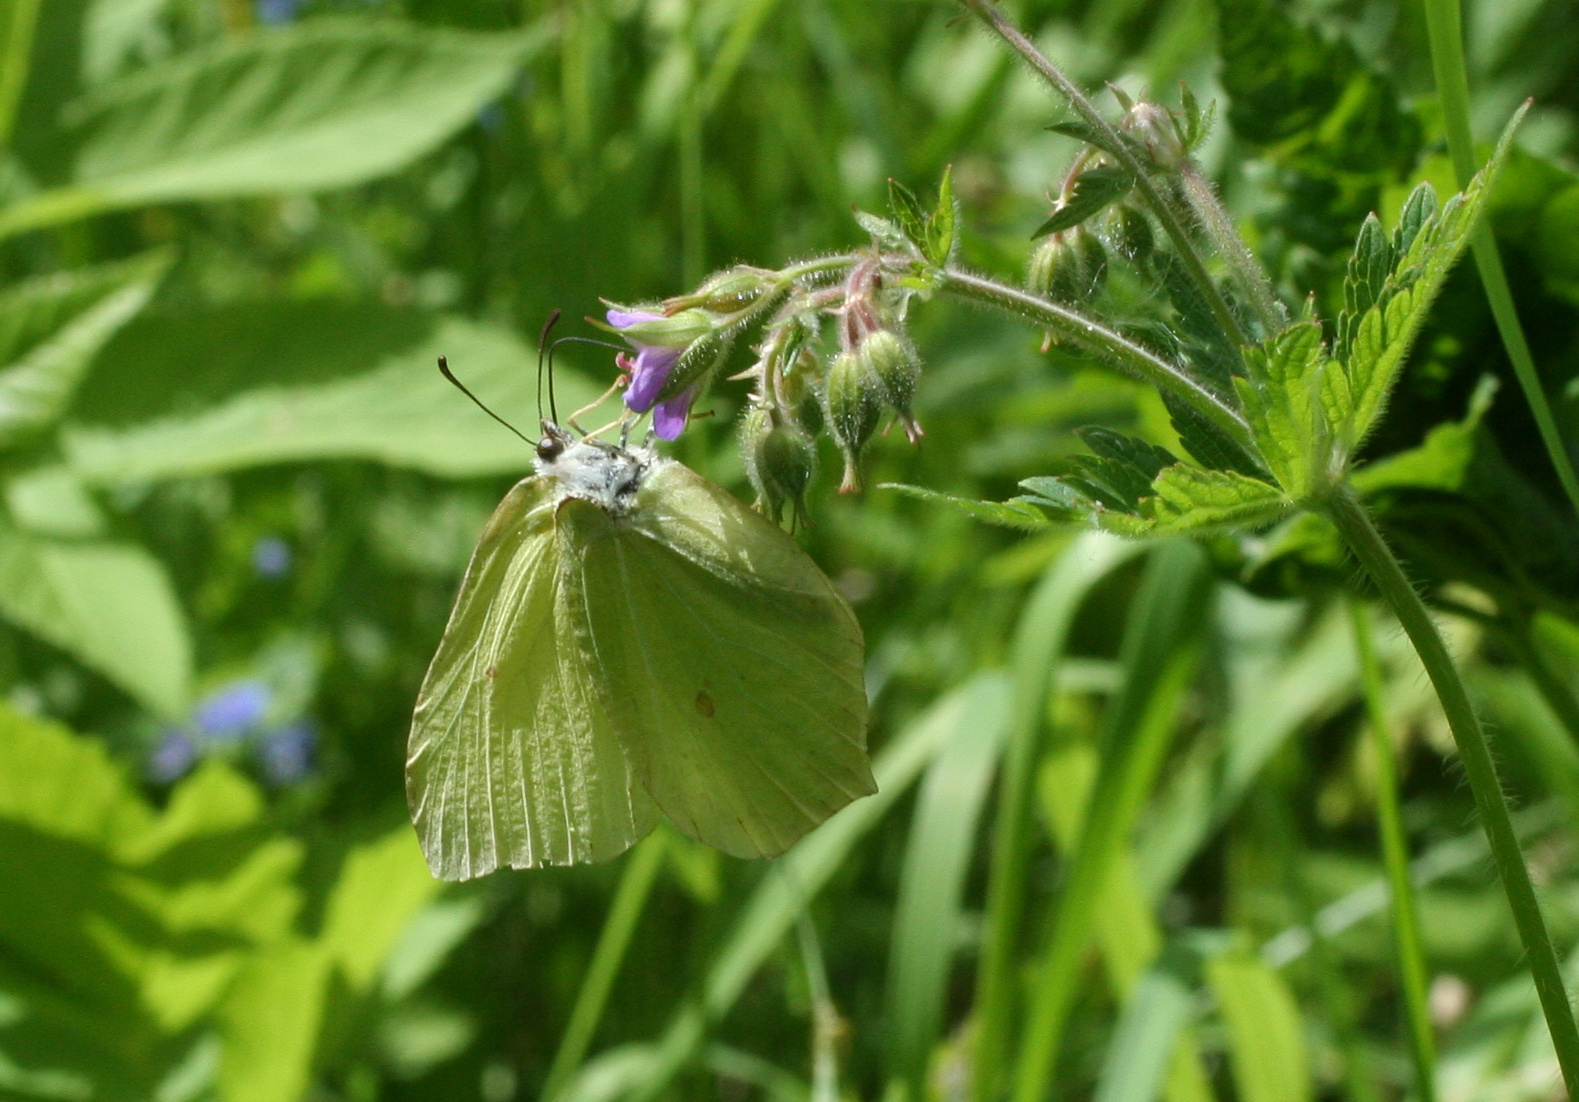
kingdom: Plantae
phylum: Tracheophyta
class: Magnoliopsida
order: Geraniales
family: Geraniaceae
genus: Geranium
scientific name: Geranium sylvaticum
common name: Wood crane's-bill
